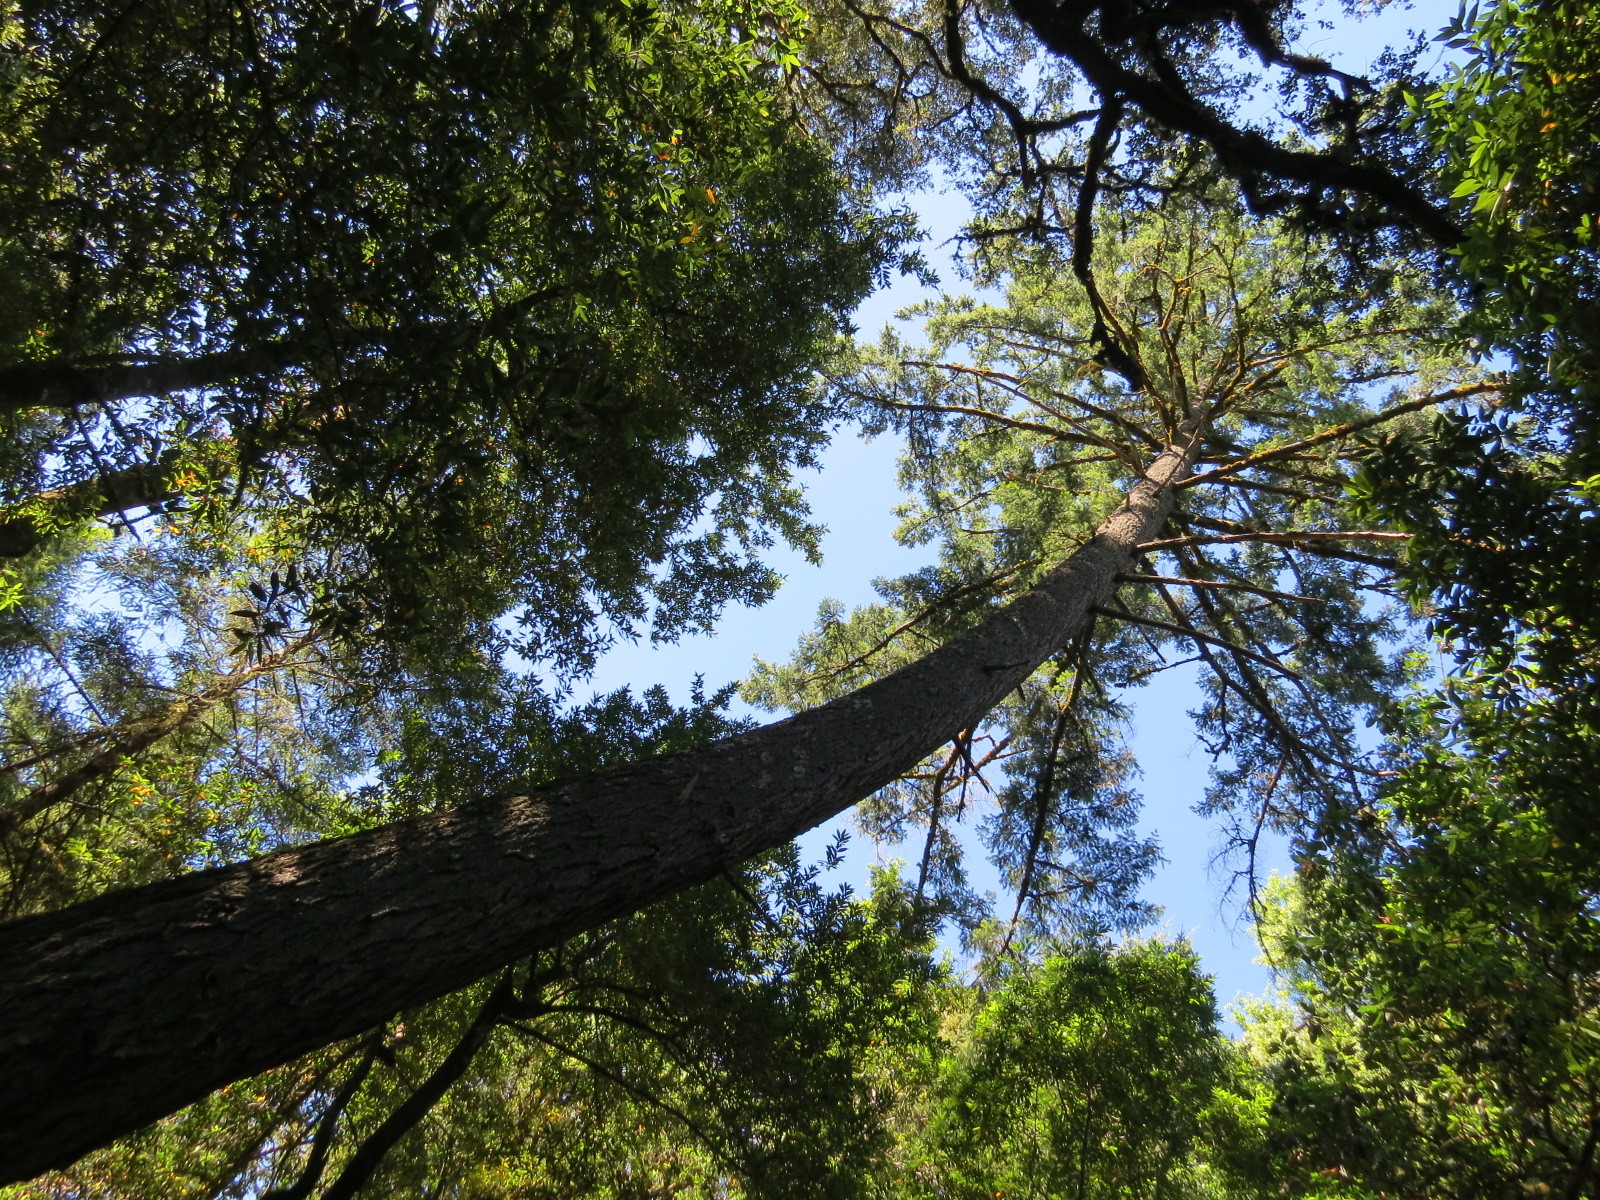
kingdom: Plantae
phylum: Tracheophyta
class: Pinopsida
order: Pinales
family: Pinaceae
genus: Pseudotsuga
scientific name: Pseudotsuga menziesii
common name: Douglas fir
